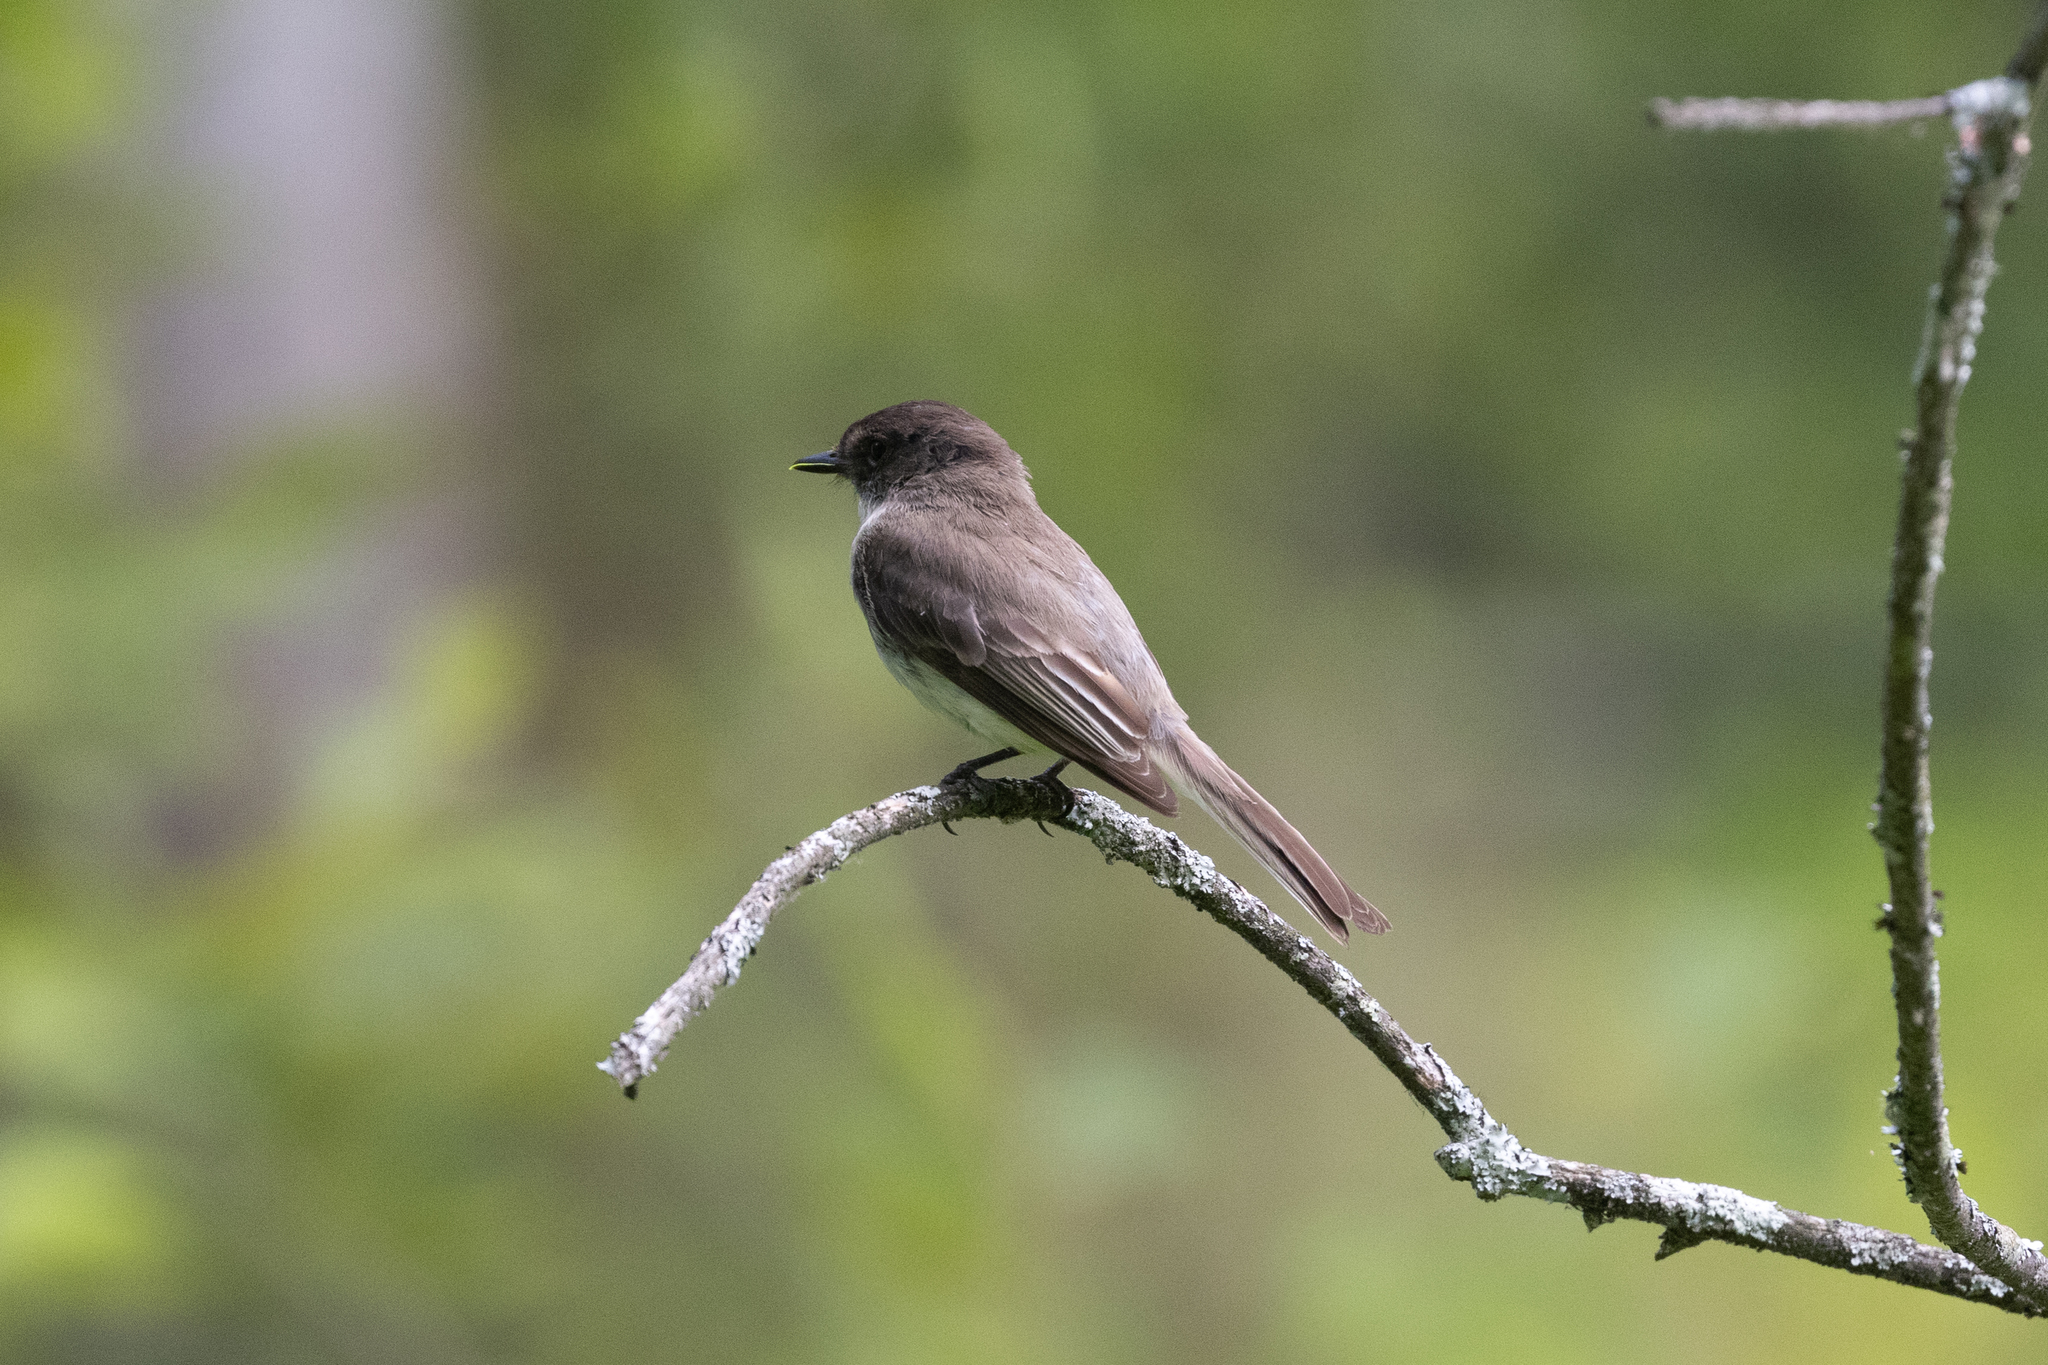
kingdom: Animalia
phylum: Chordata
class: Aves
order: Passeriformes
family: Tyrannidae
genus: Sayornis
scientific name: Sayornis phoebe
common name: Eastern phoebe
